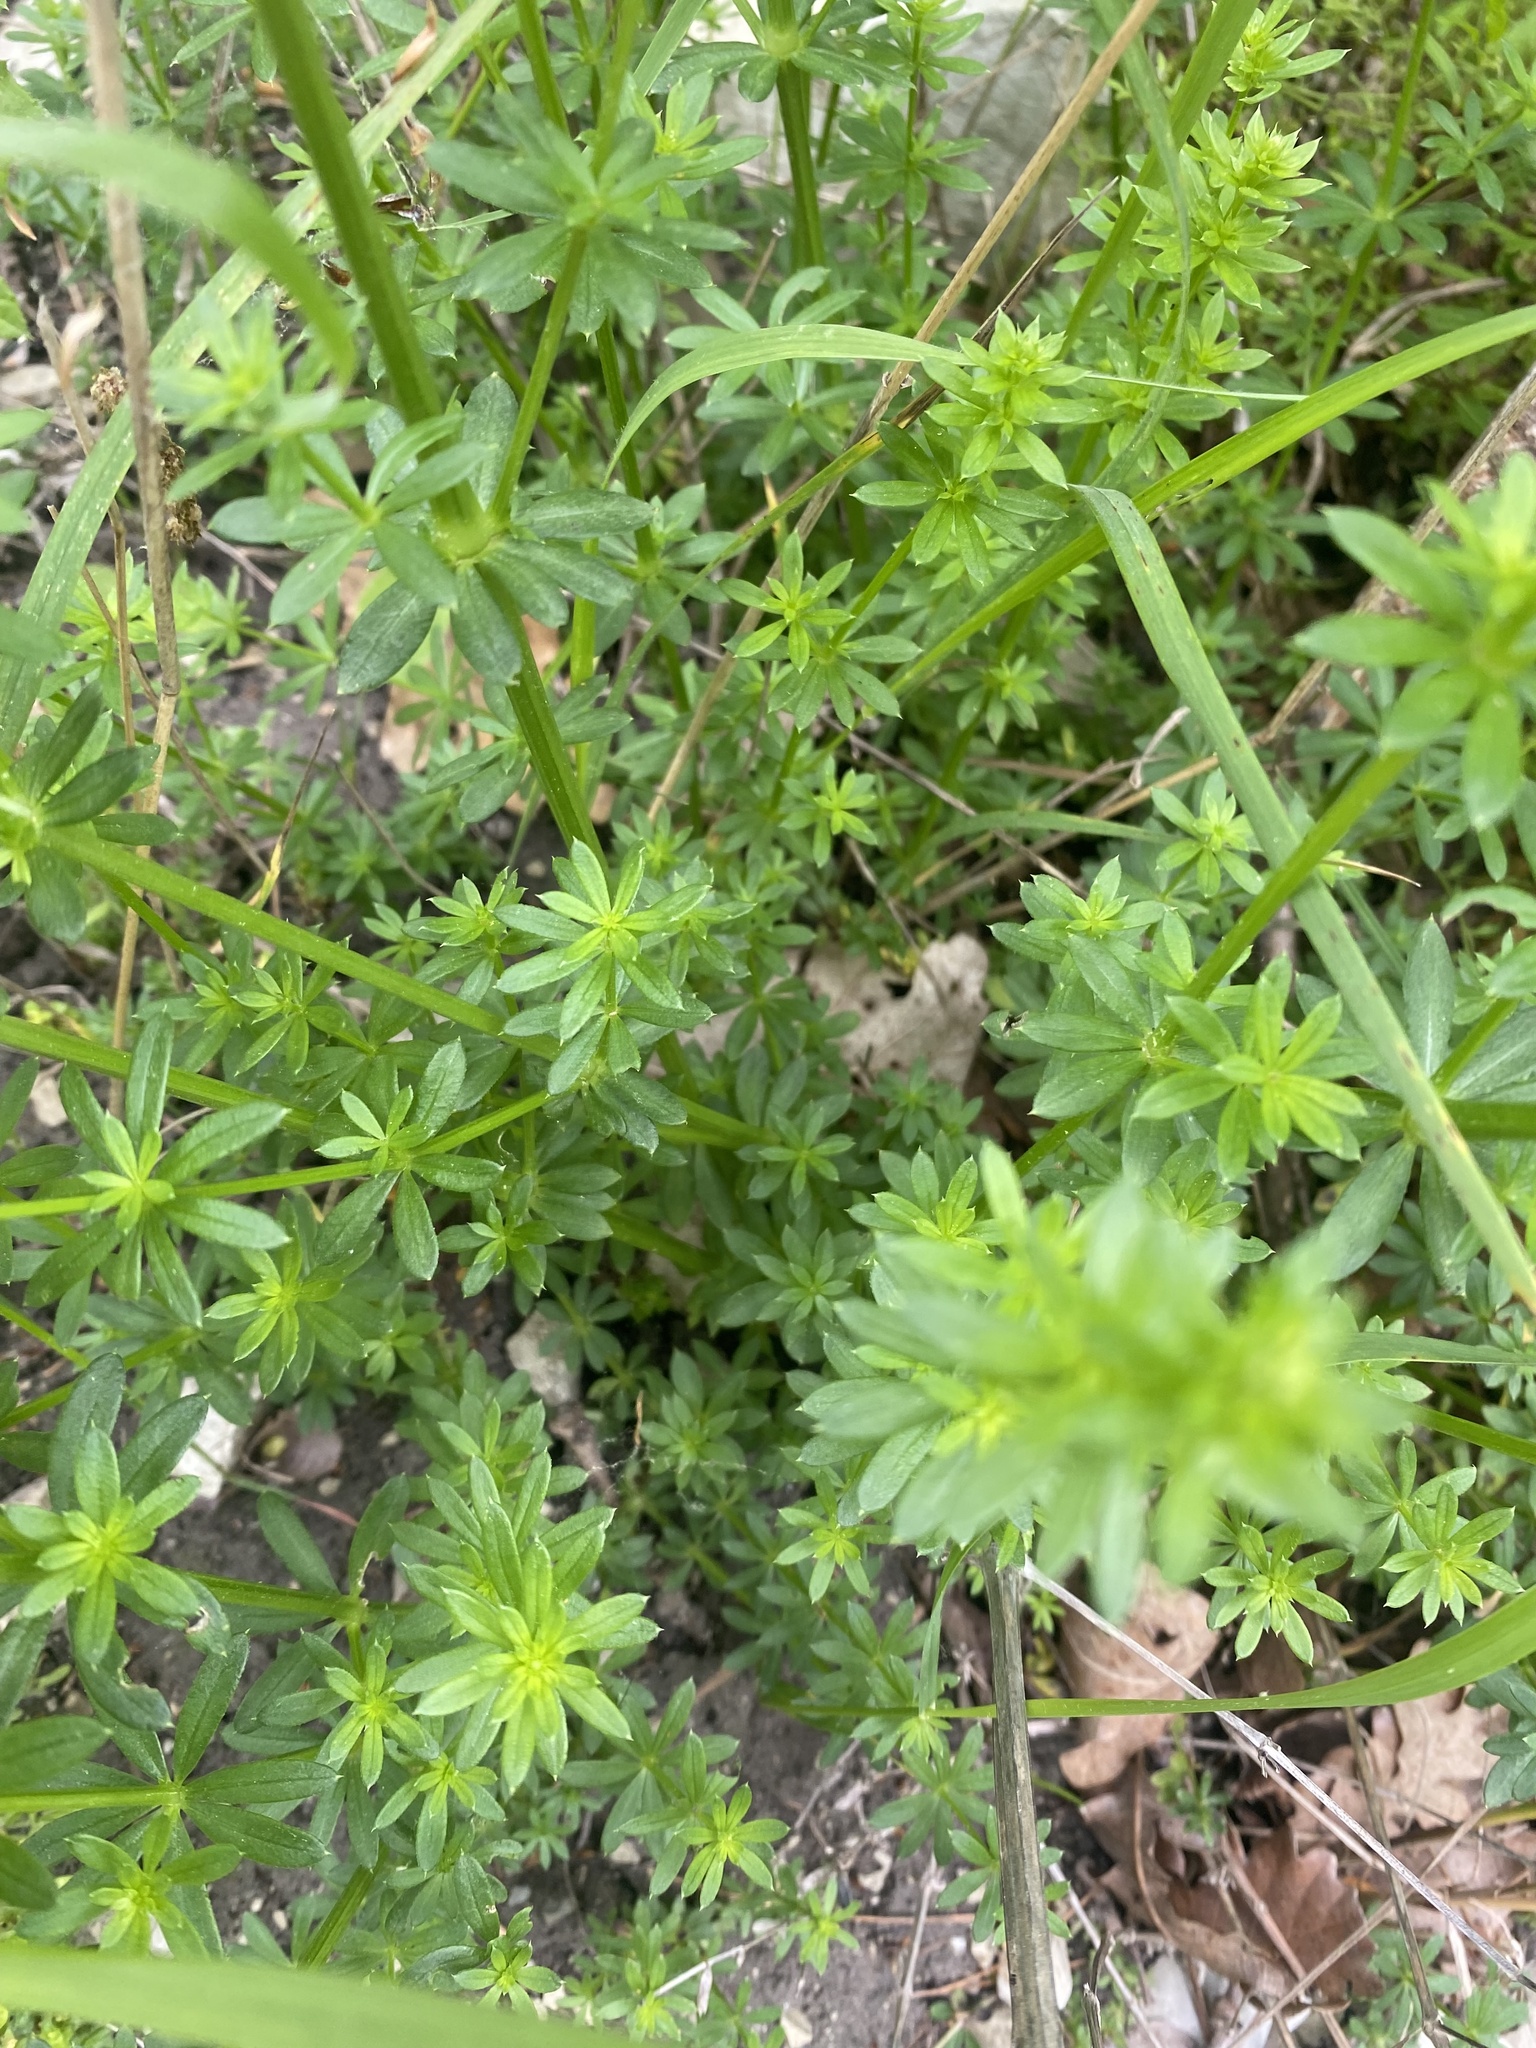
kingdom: Plantae
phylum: Tracheophyta
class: Magnoliopsida
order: Gentianales
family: Rubiaceae
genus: Galium
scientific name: Galium mollugo
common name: Hedge bedstraw
